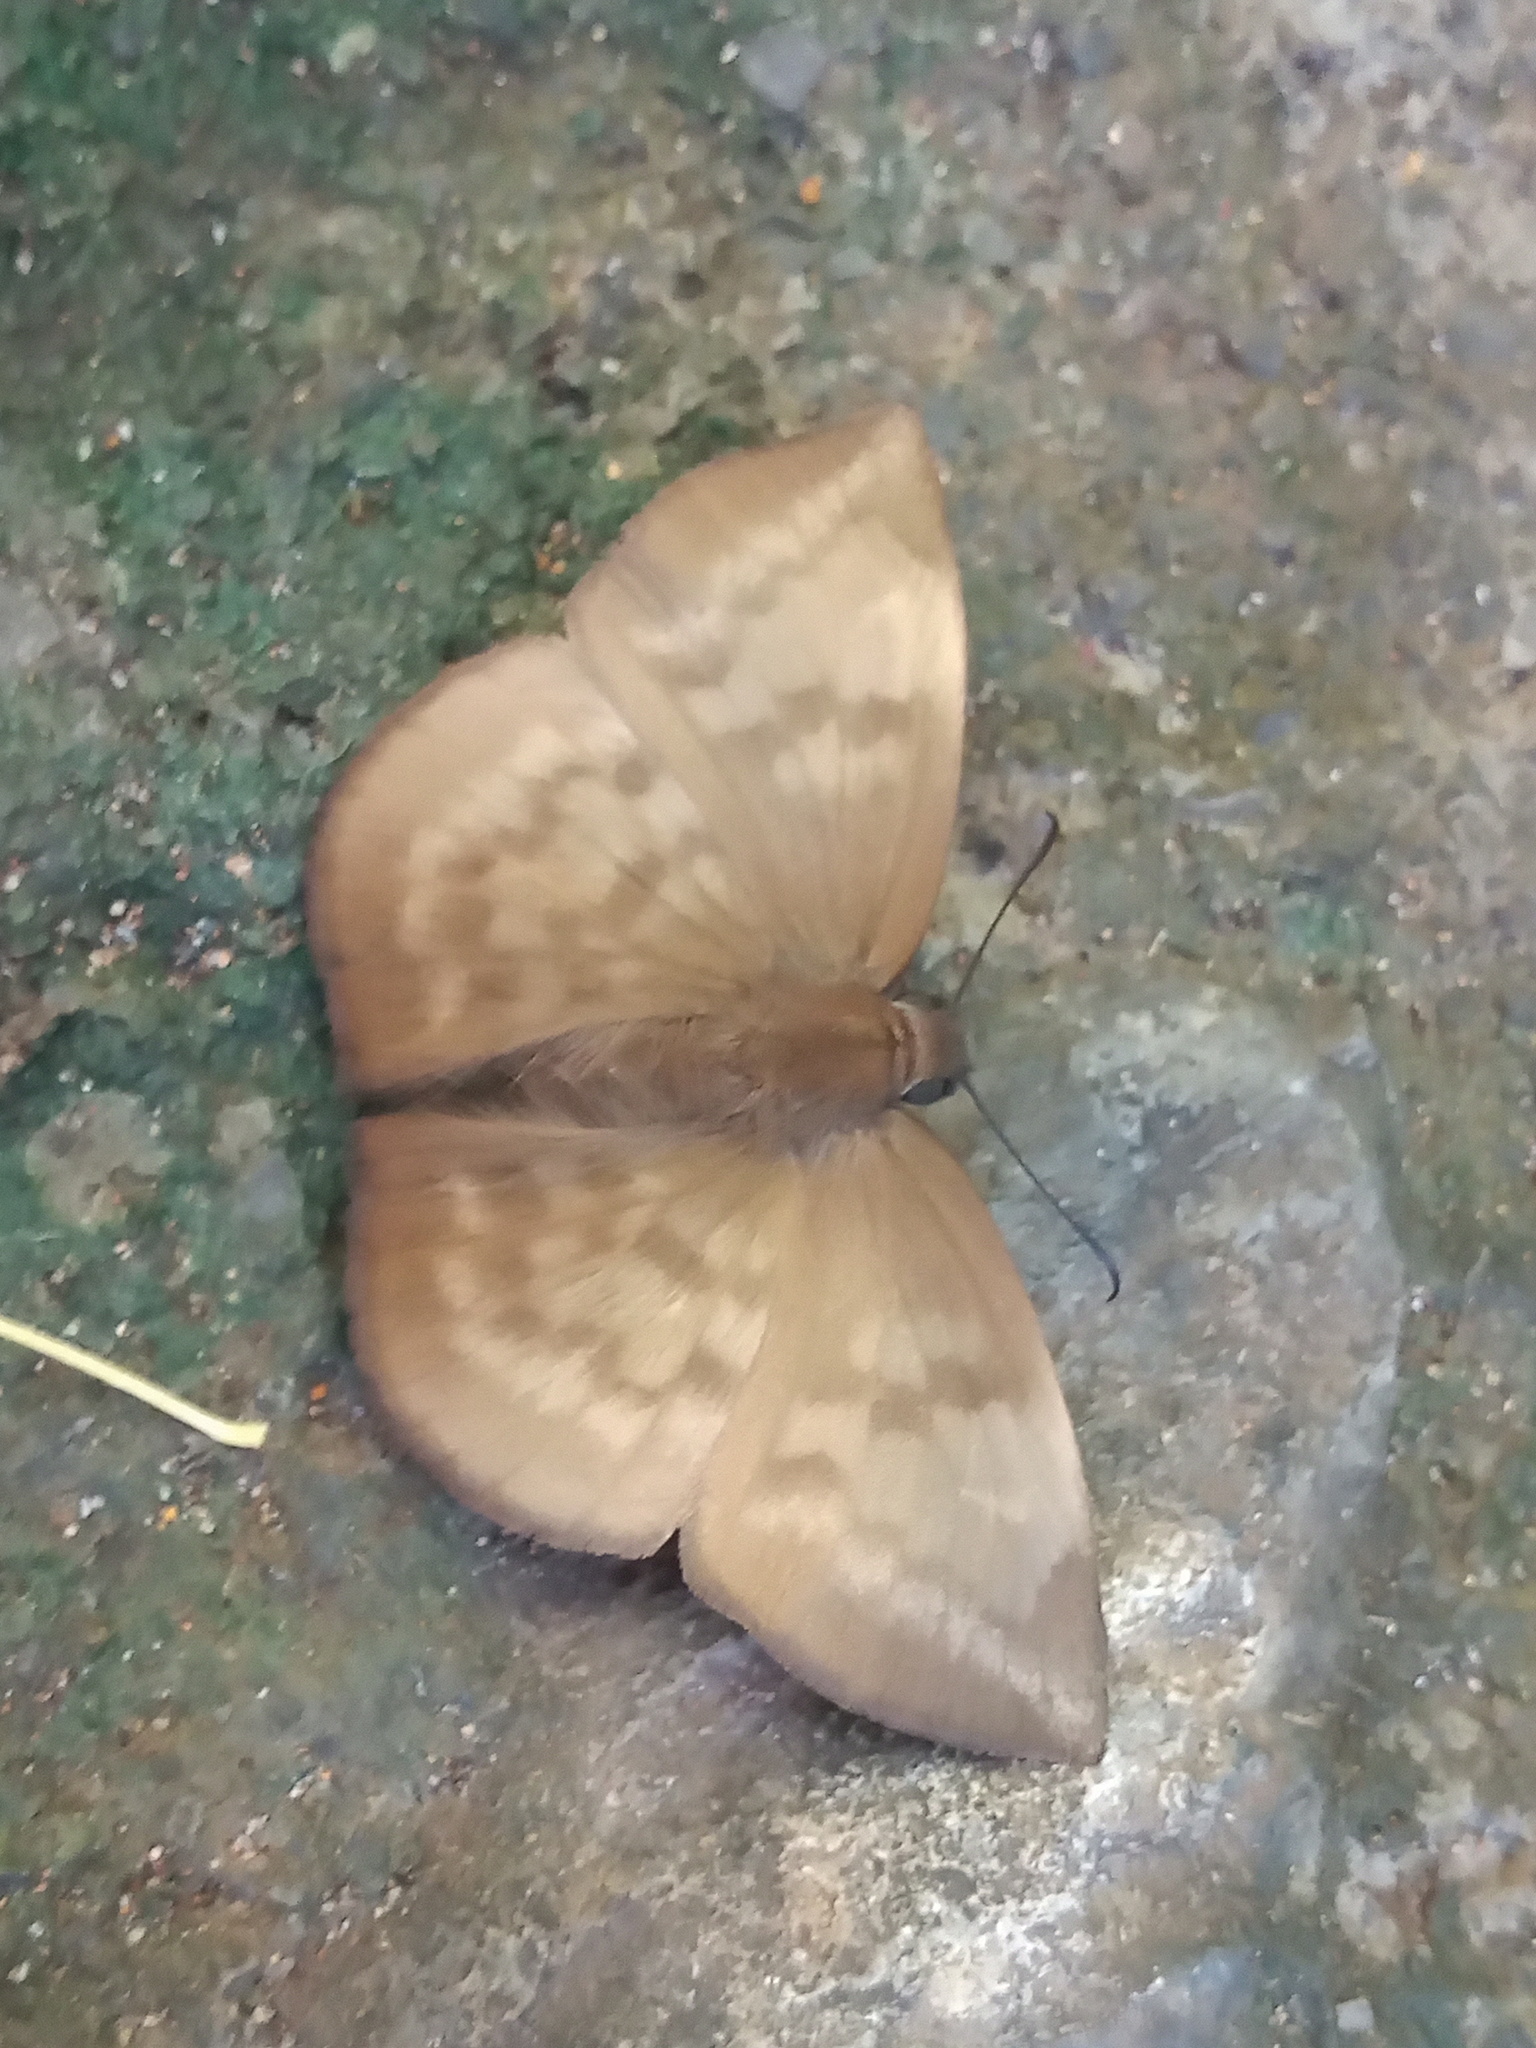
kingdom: Animalia
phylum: Arthropoda
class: Insecta
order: Lepidoptera
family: Hesperiidae
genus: Achlyodes
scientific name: Achlyodes pallida
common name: Pale sicklewing
